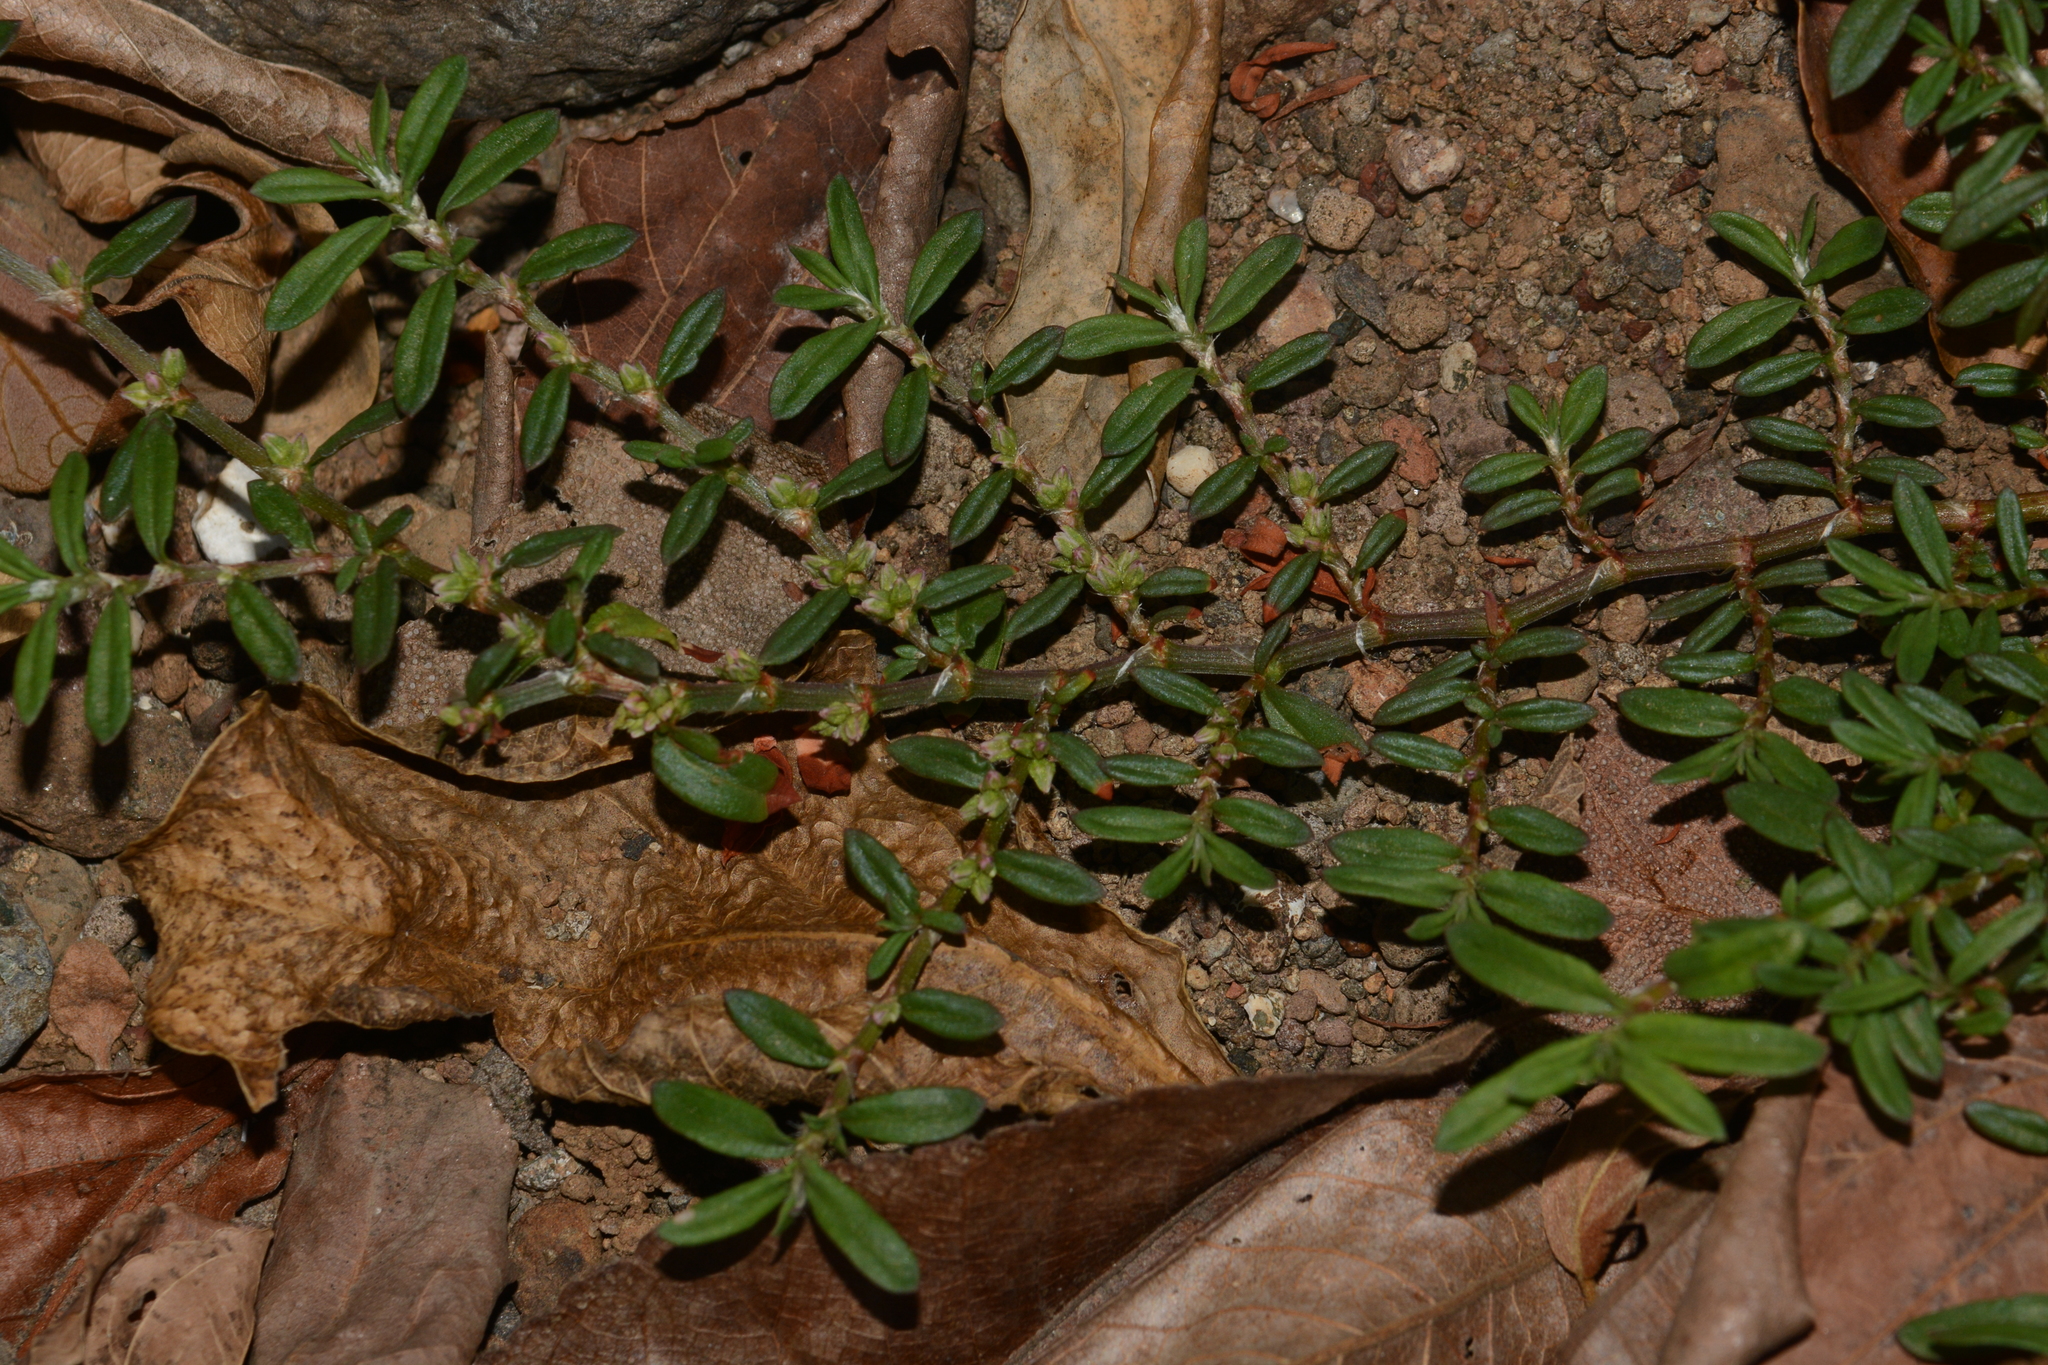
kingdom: Plantae
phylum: Tracheophyta
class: Magnoliopsida
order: Caryophyllales
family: Polygonaceae
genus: Polygonum
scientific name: Polygonum plebeium
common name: Common knotweed
